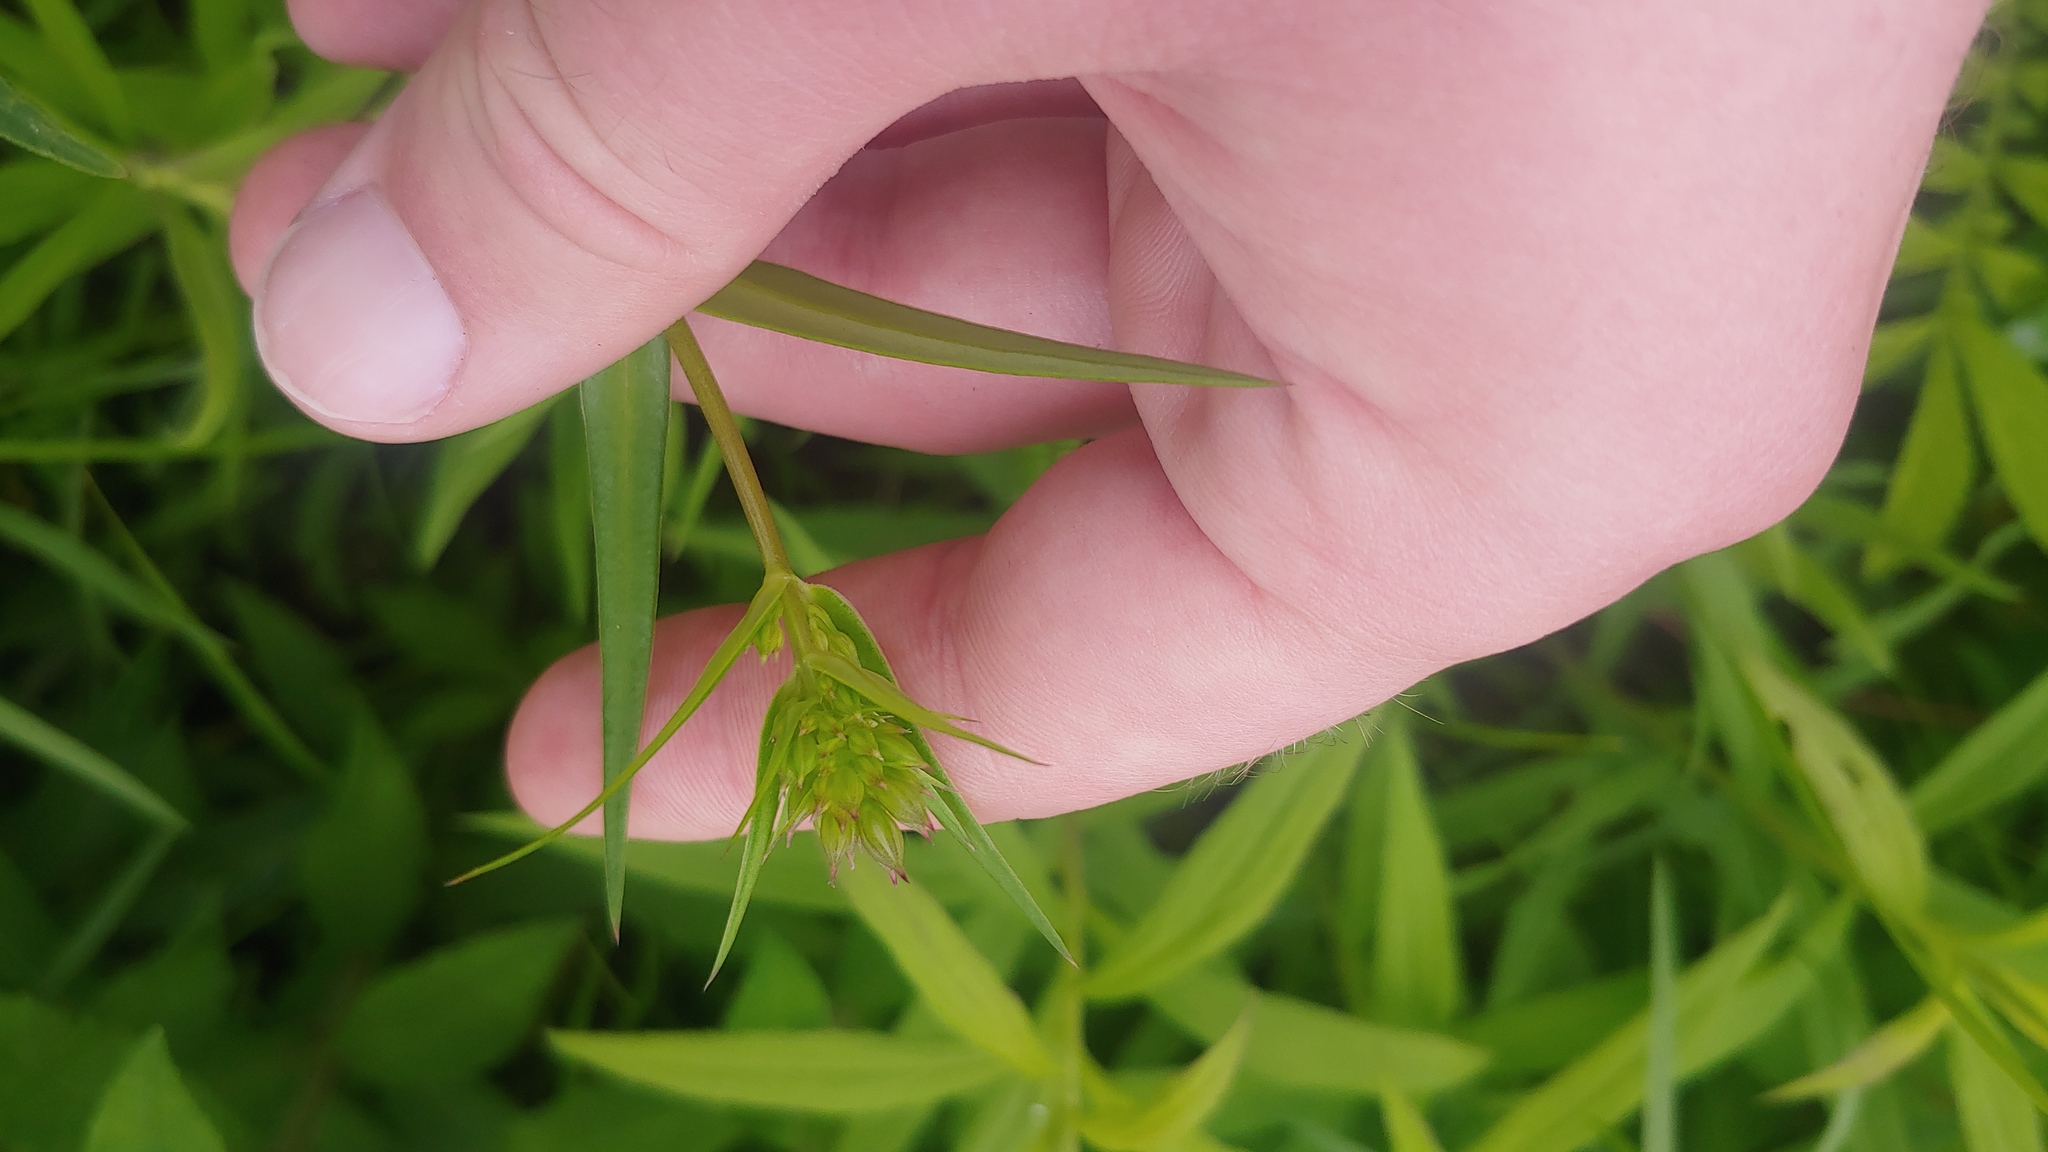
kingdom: Plantae
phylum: Tracheophyta
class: Magnoliopsida
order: Ericales
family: Polemoniaceae
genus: Phlox
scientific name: Phlox glaberrima
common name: Smooth phlox
